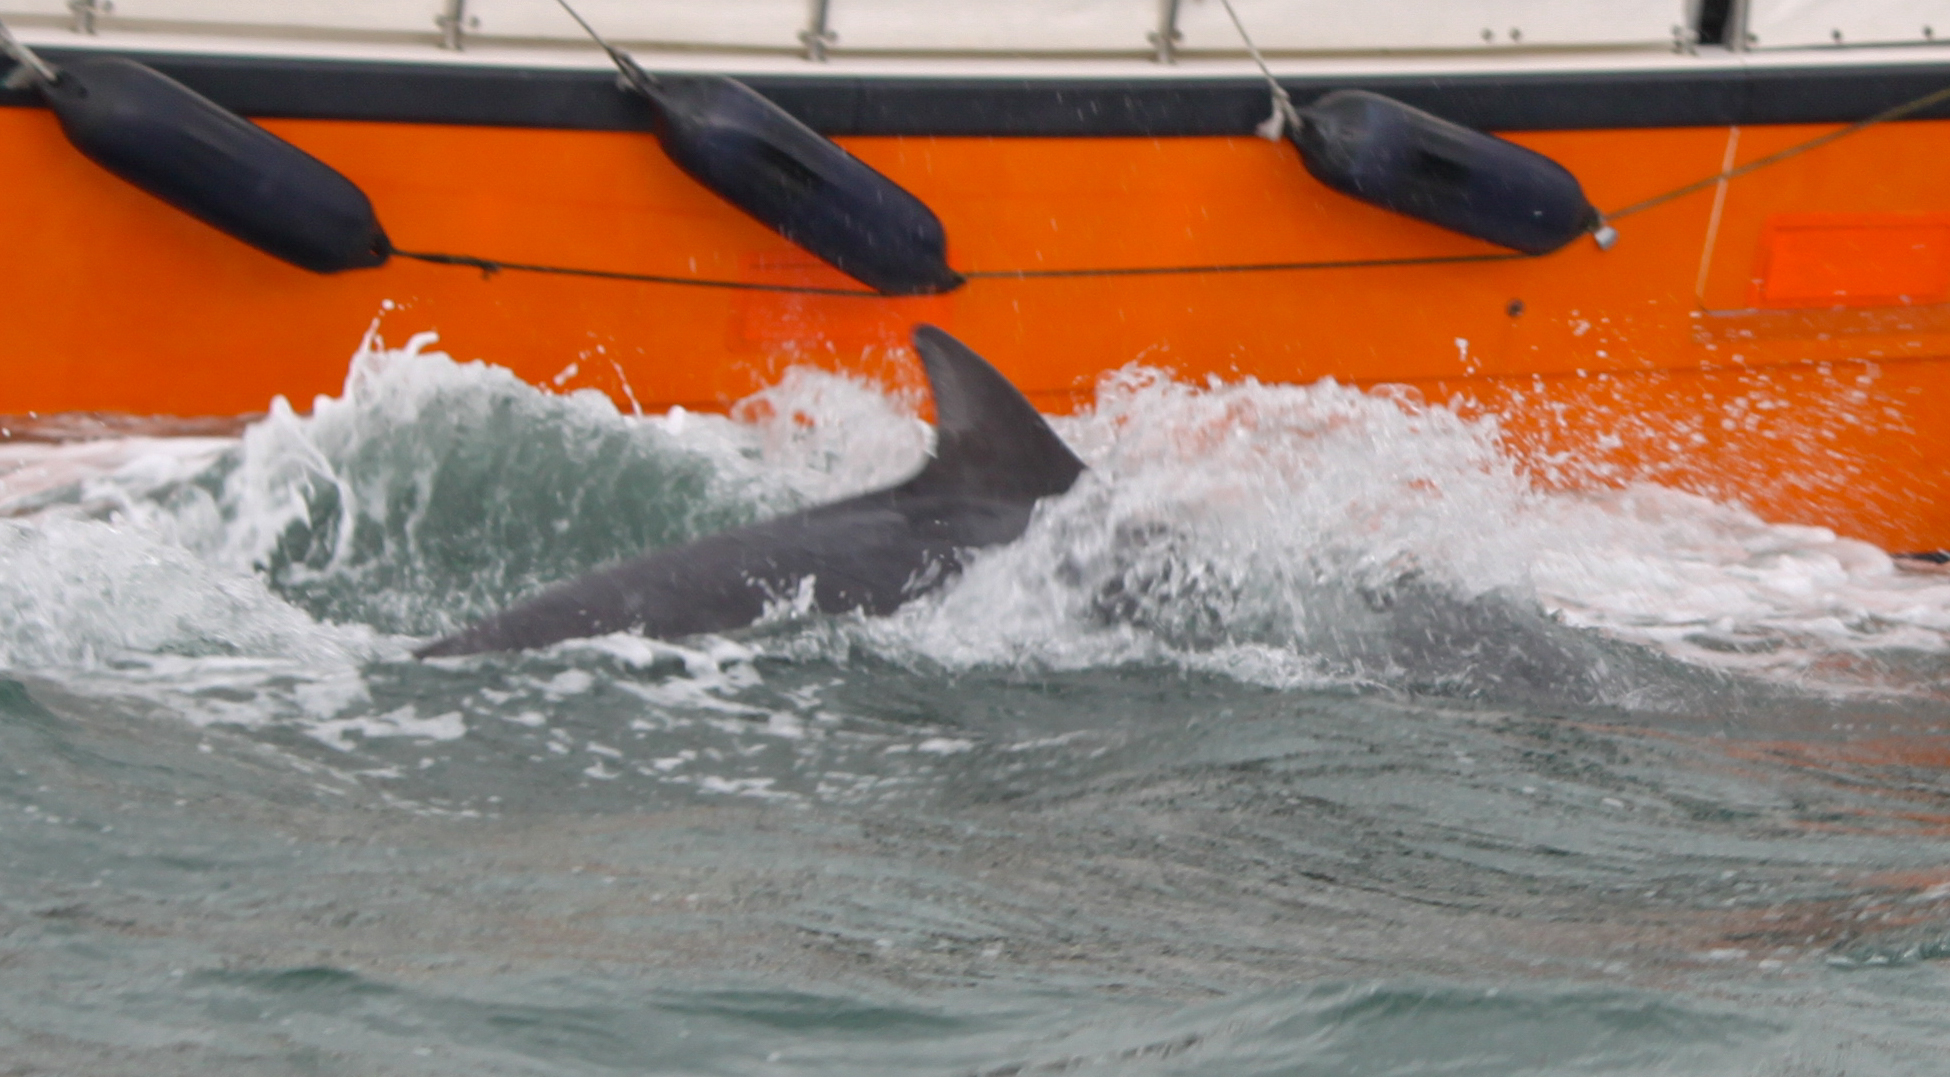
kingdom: Animalia
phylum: Chordata
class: Mammalia
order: Cetacea
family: Delphinidae
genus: Tursiops
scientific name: Tursiops truncatus
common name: Bottlenose dolphin
